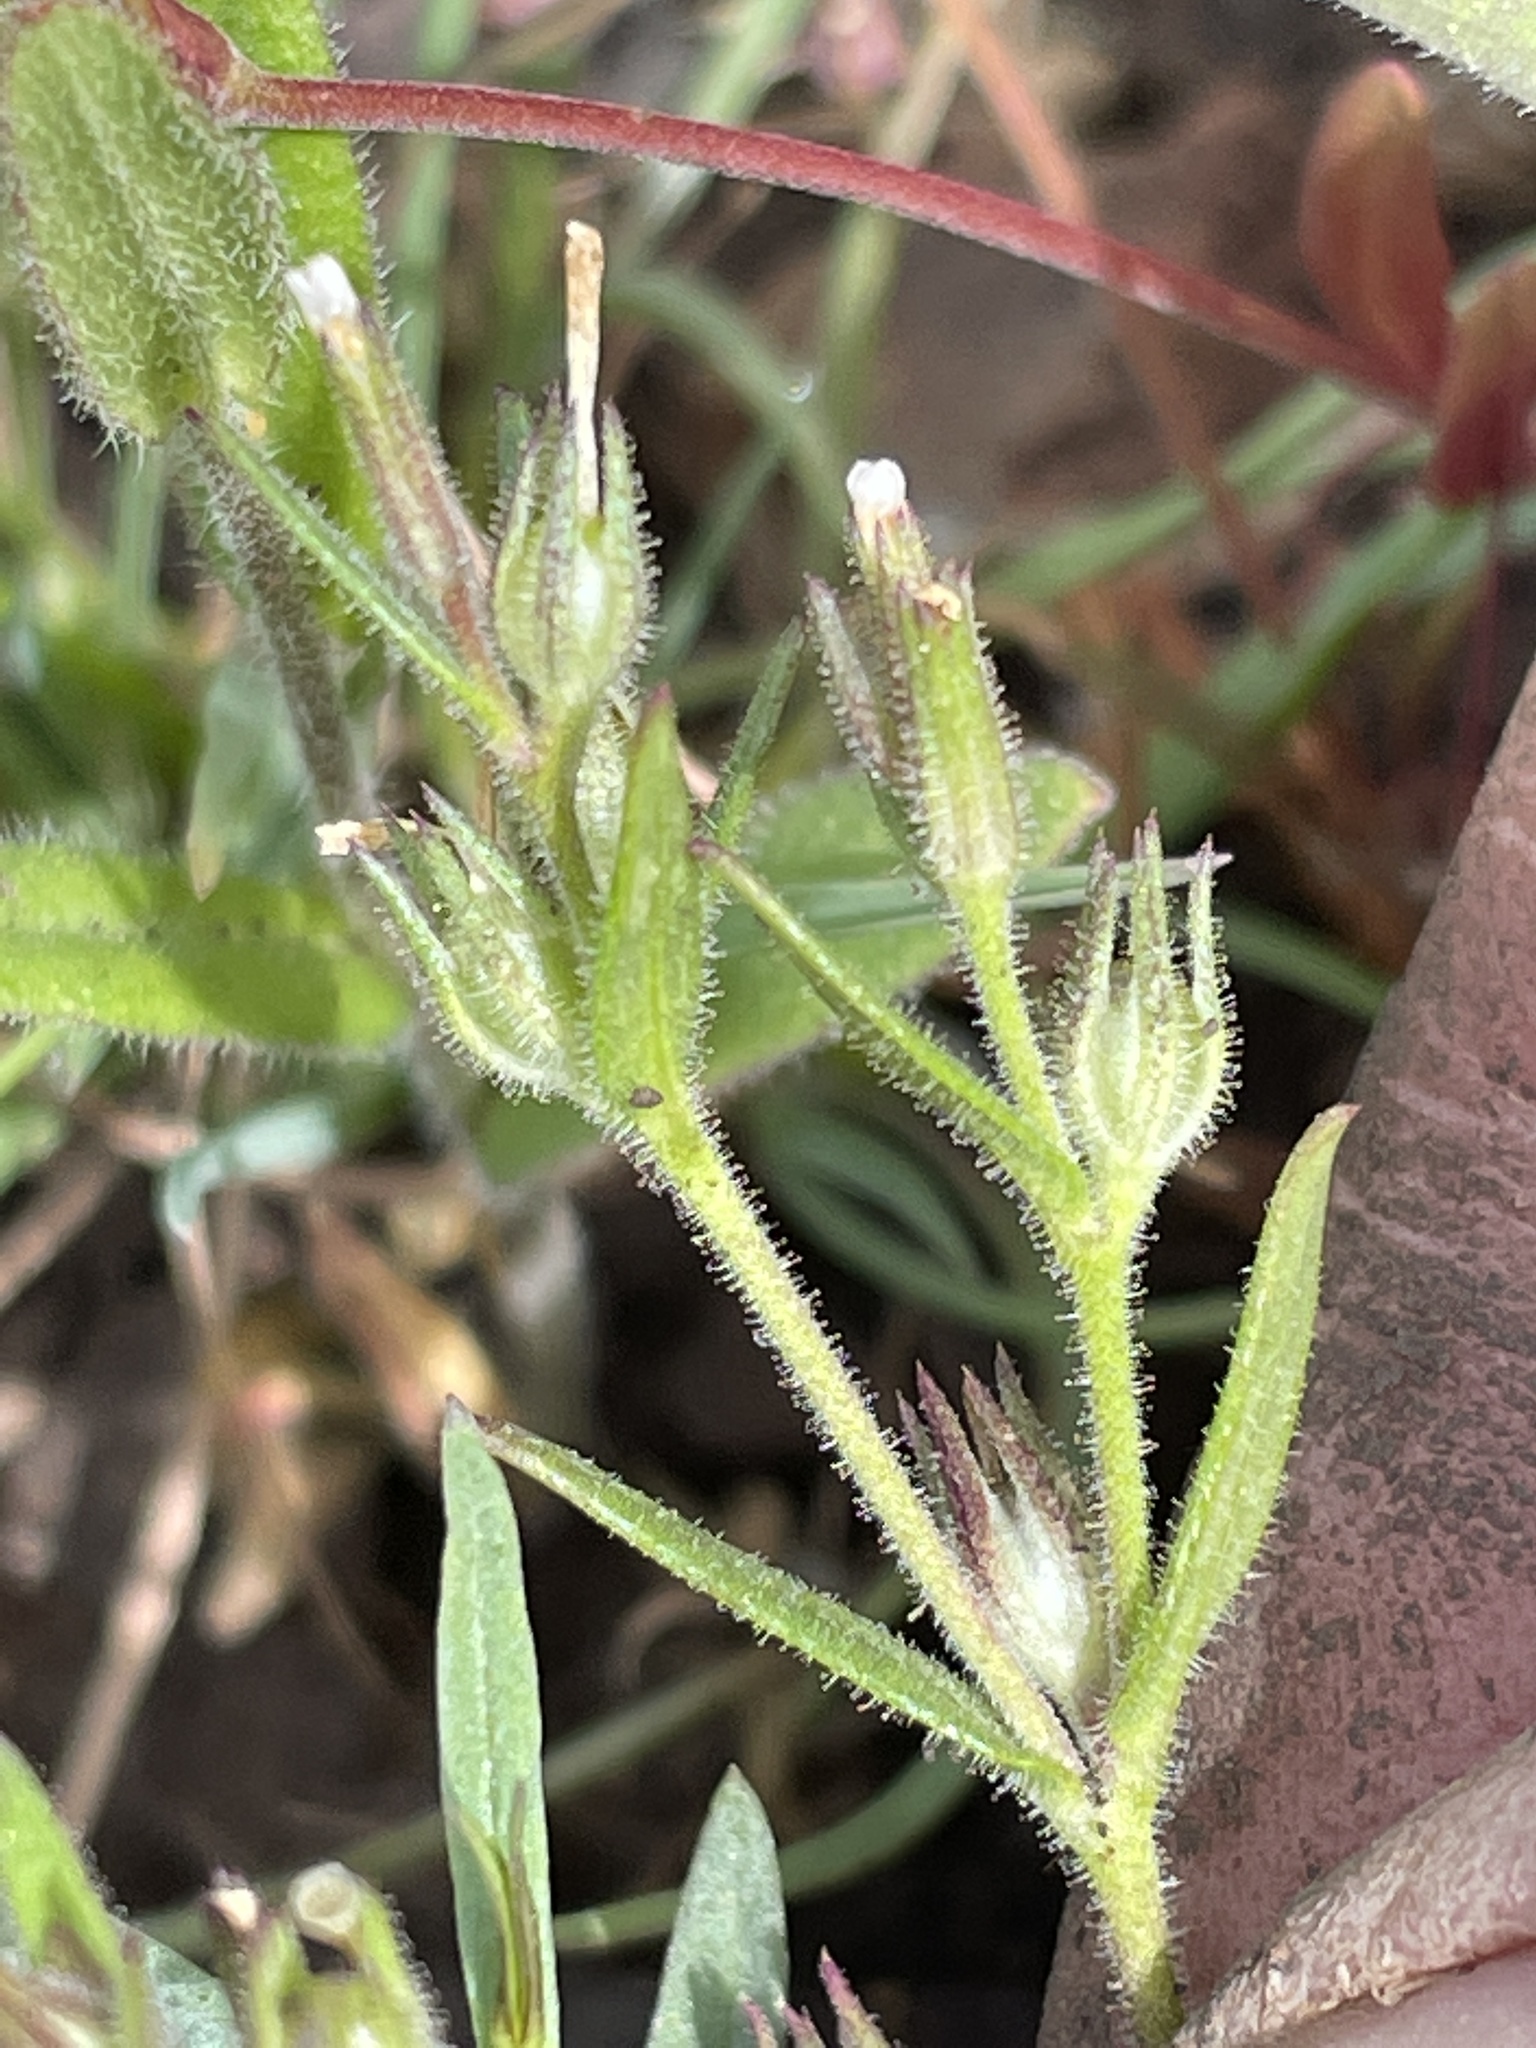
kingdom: Plantae
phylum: Tracheophyta
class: Magnoliopsida
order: Ericales
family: Polemoniaceae
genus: Phlox
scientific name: Phlox gracilis
